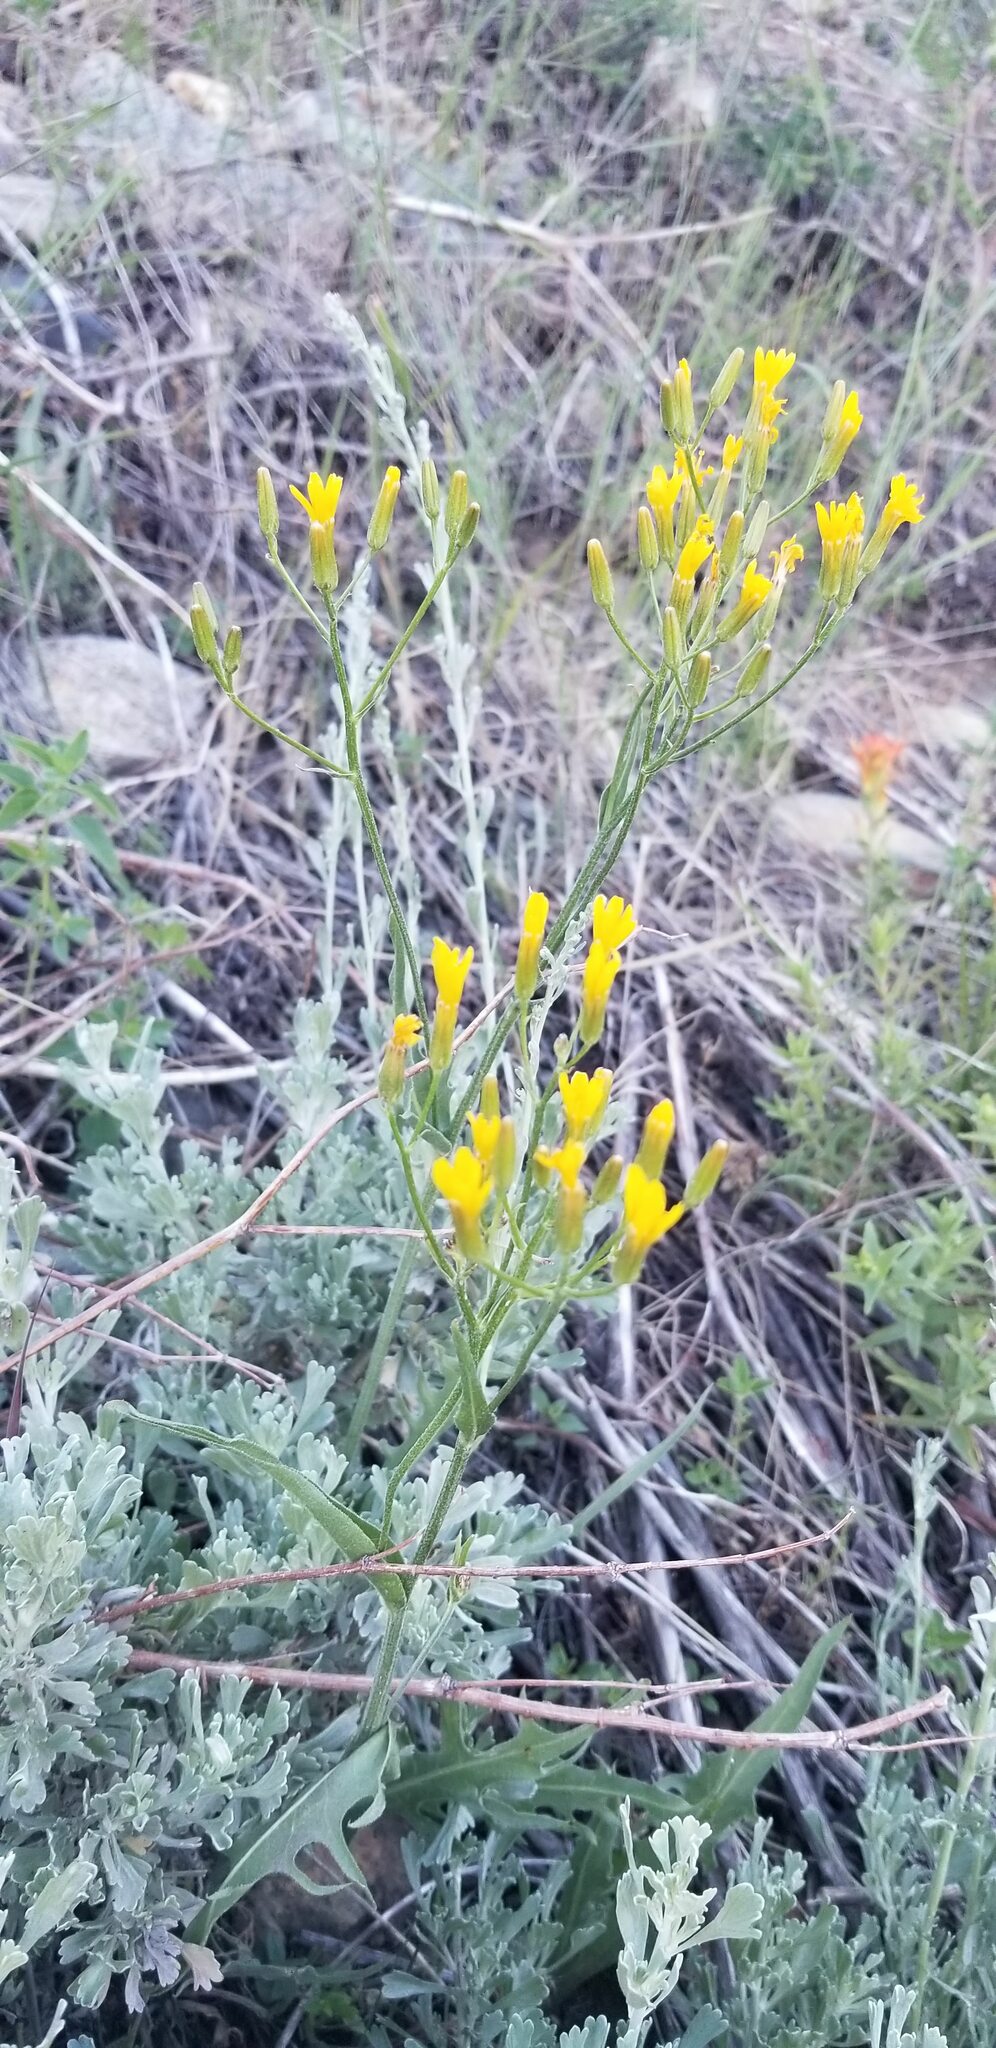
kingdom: Plantae
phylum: Tracheophyta
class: Magnoliopsida
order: Asterales
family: Asteraceae
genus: Crepis
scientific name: Crepis acuminata
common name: Longleaf hawk's-beard
